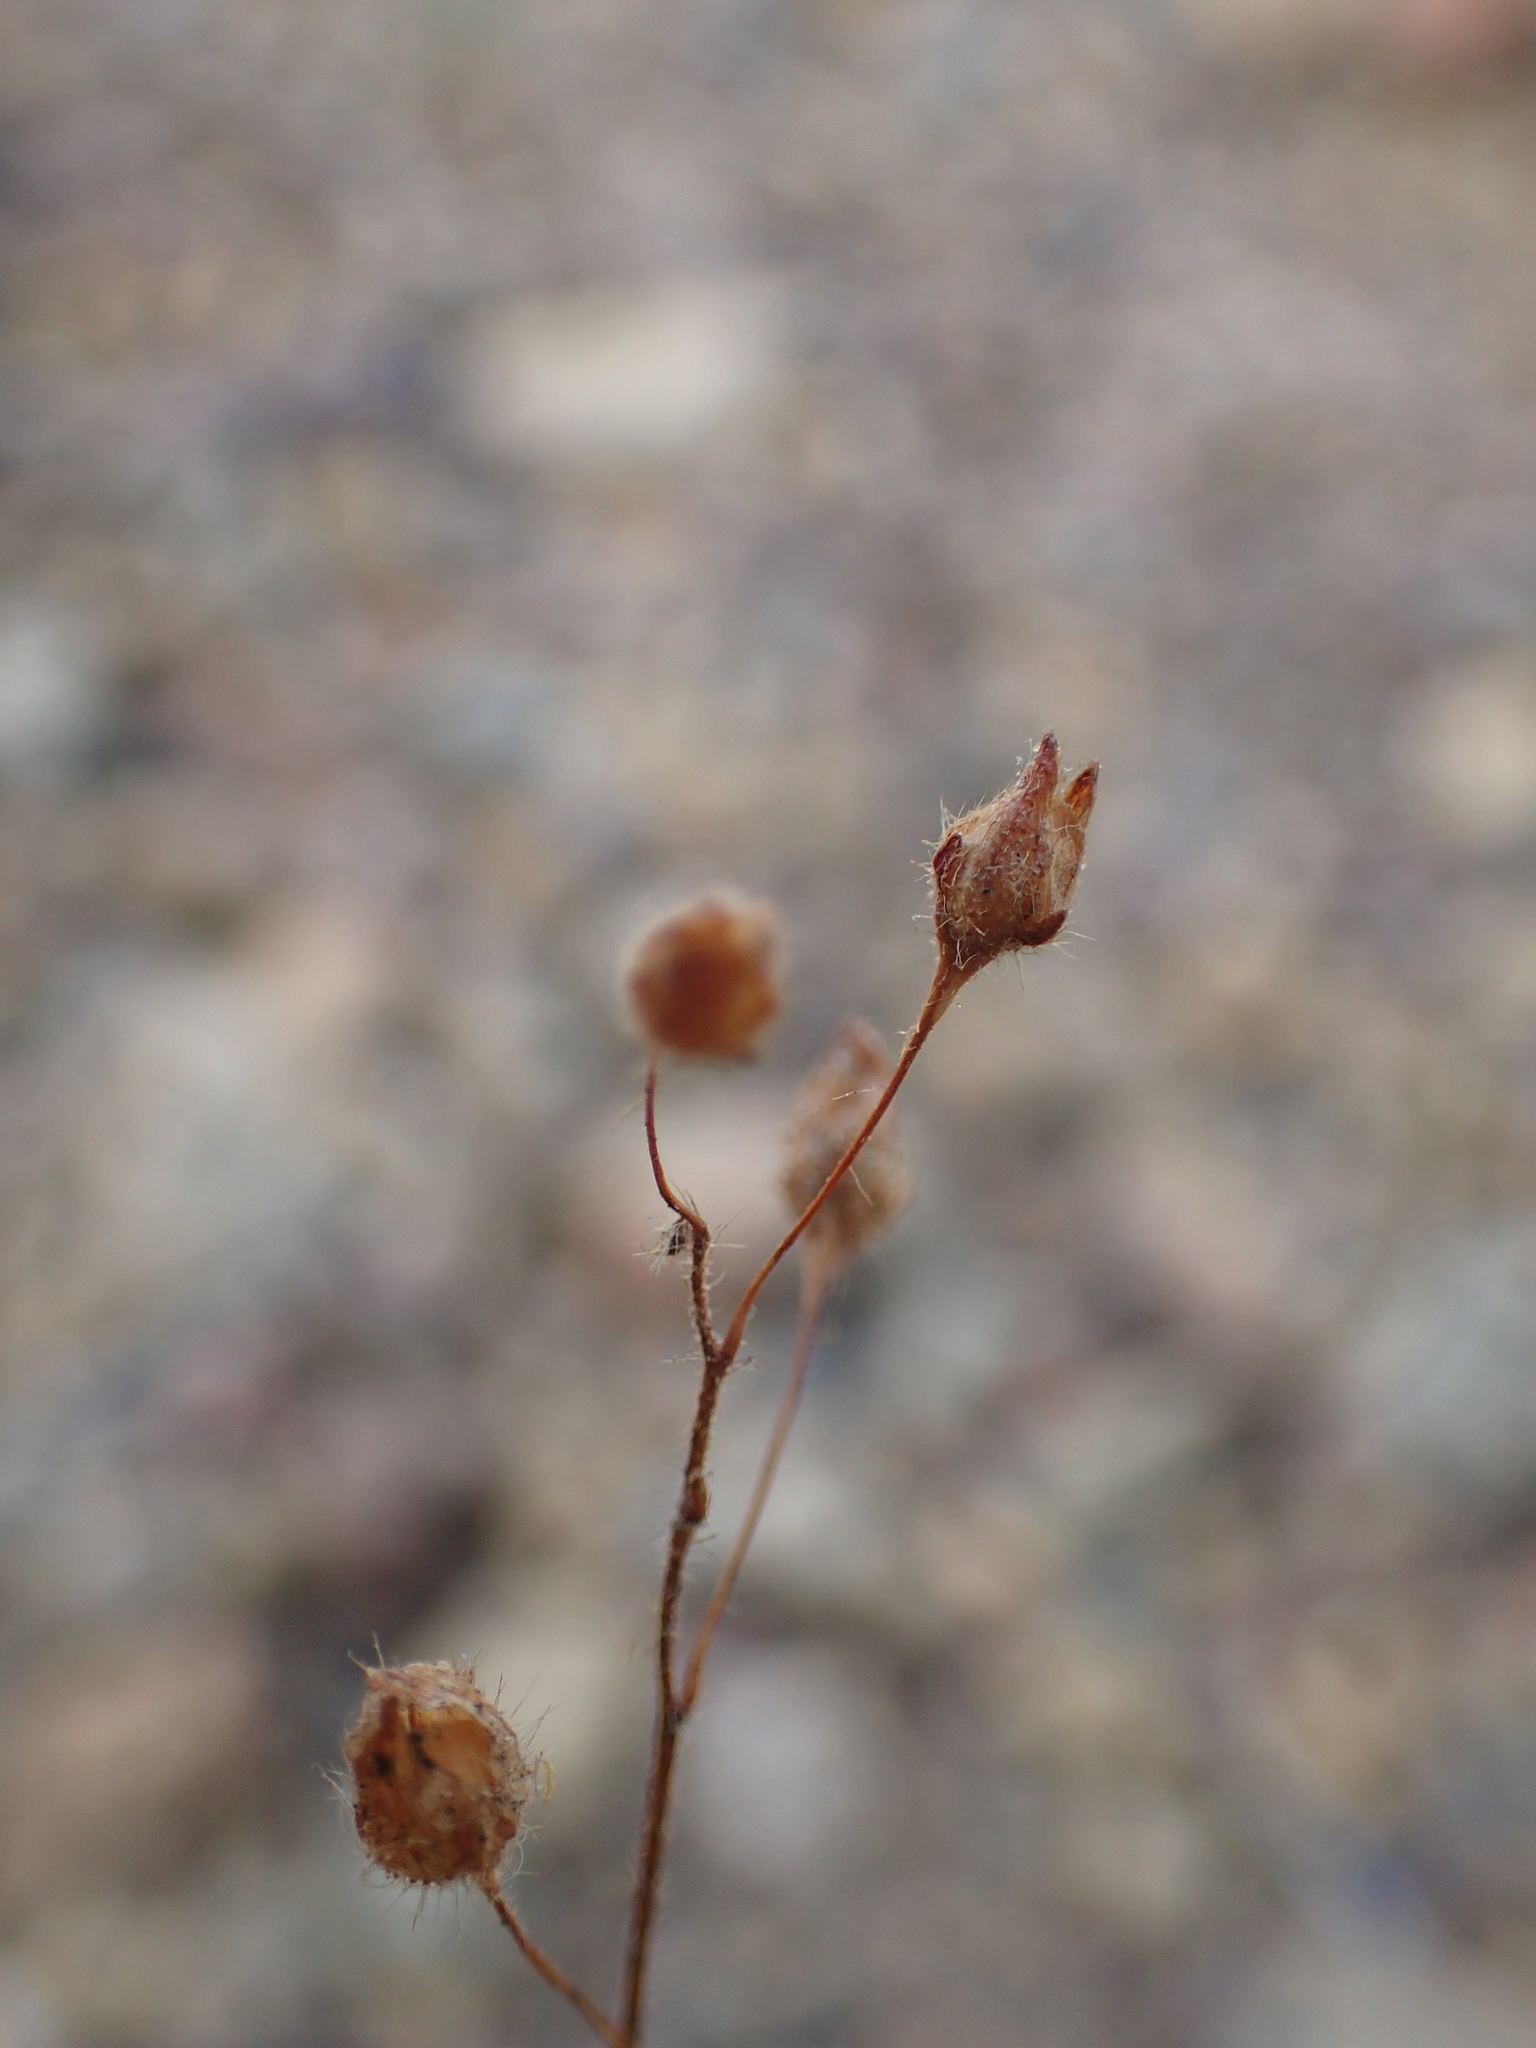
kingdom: Plantae
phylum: Tracheophyta
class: Magnoliopsida
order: Malvales
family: Cistaceae
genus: Tuberaria
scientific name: Tuberaria guttata
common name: Spotted rock-rose
